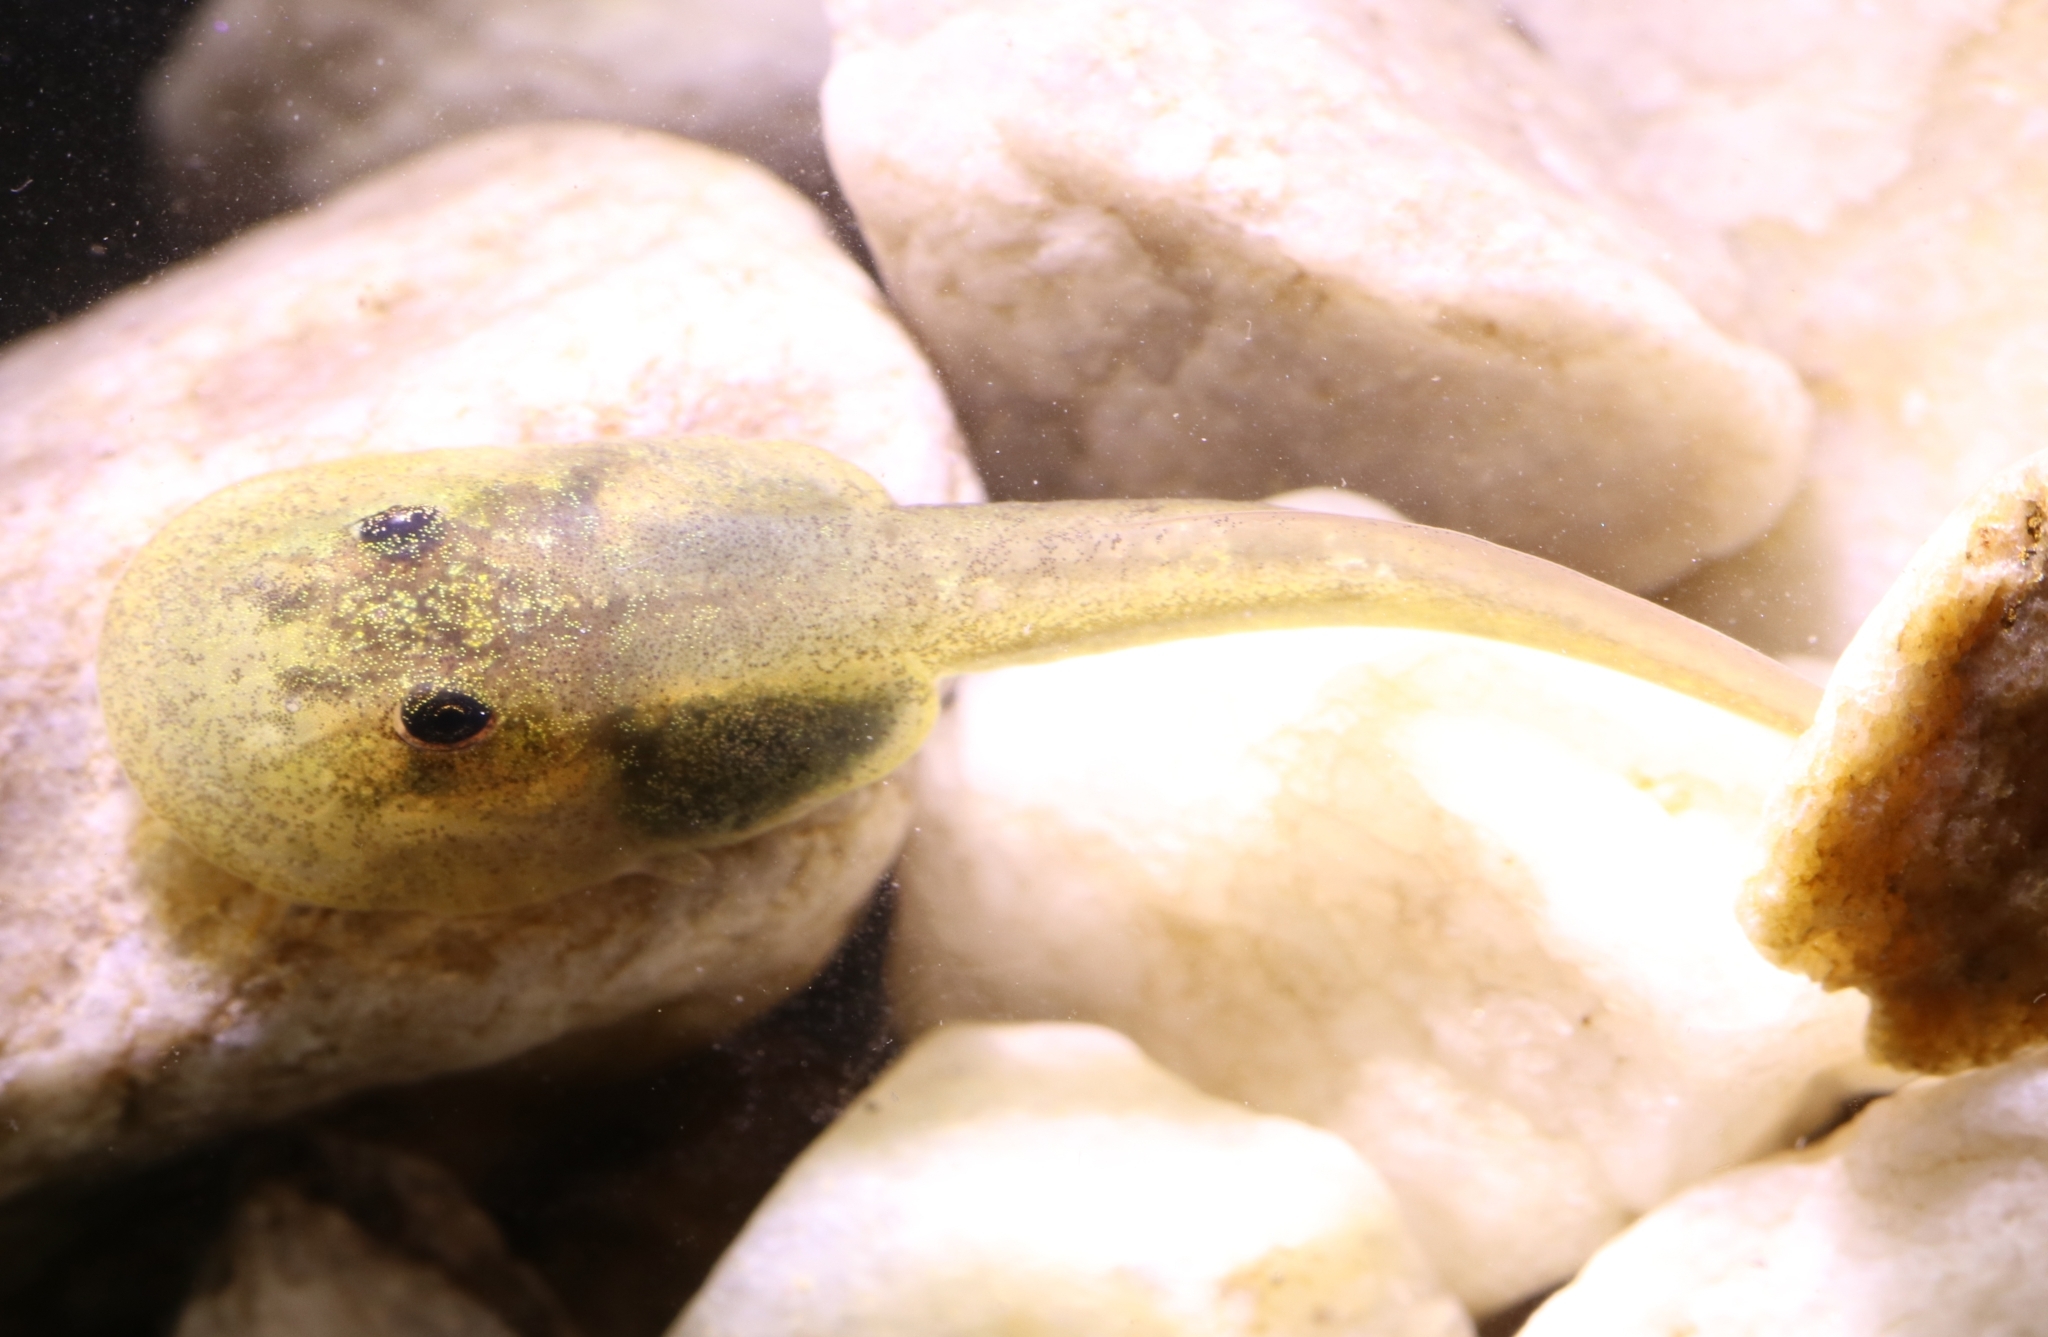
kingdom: Animalia
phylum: Chordata
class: Amphibia
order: Anura
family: Heleophrynidae
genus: Heleophryne
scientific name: Heleophryne orientalis
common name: East cape ghost frog
